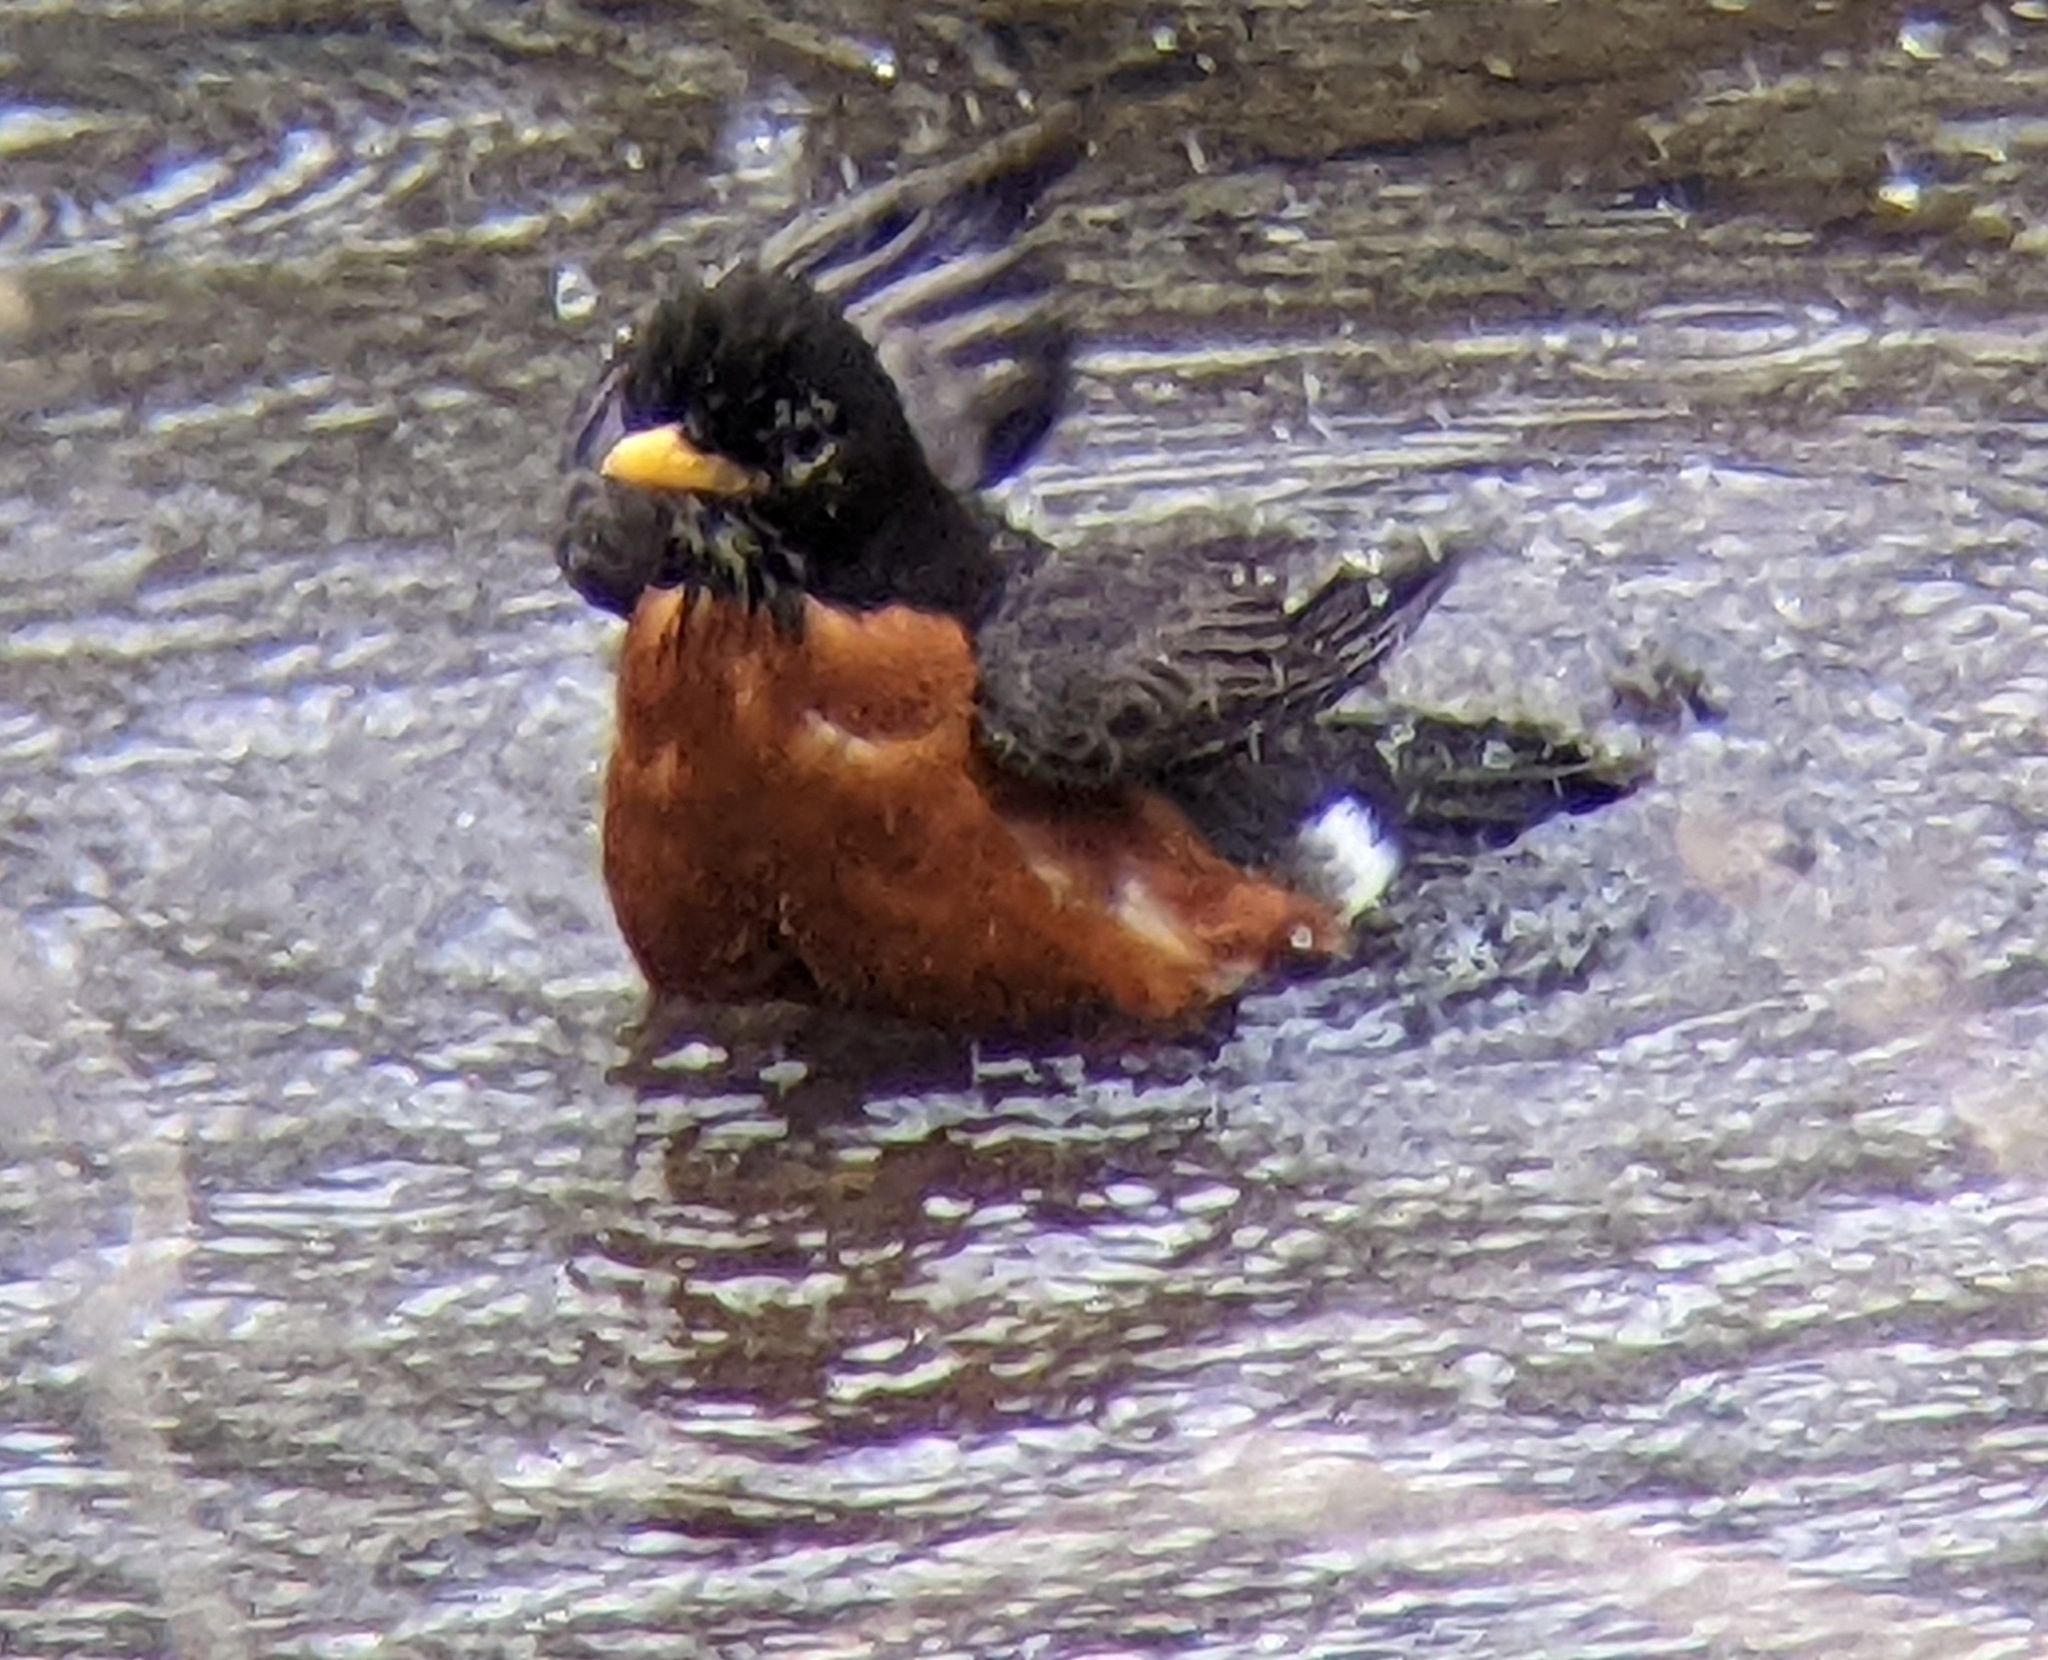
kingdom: Animalia
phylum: Chordata
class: Aves
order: Passeriformes
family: Turdidae
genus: Turdus
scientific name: Turdus migratorius
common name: American robin
